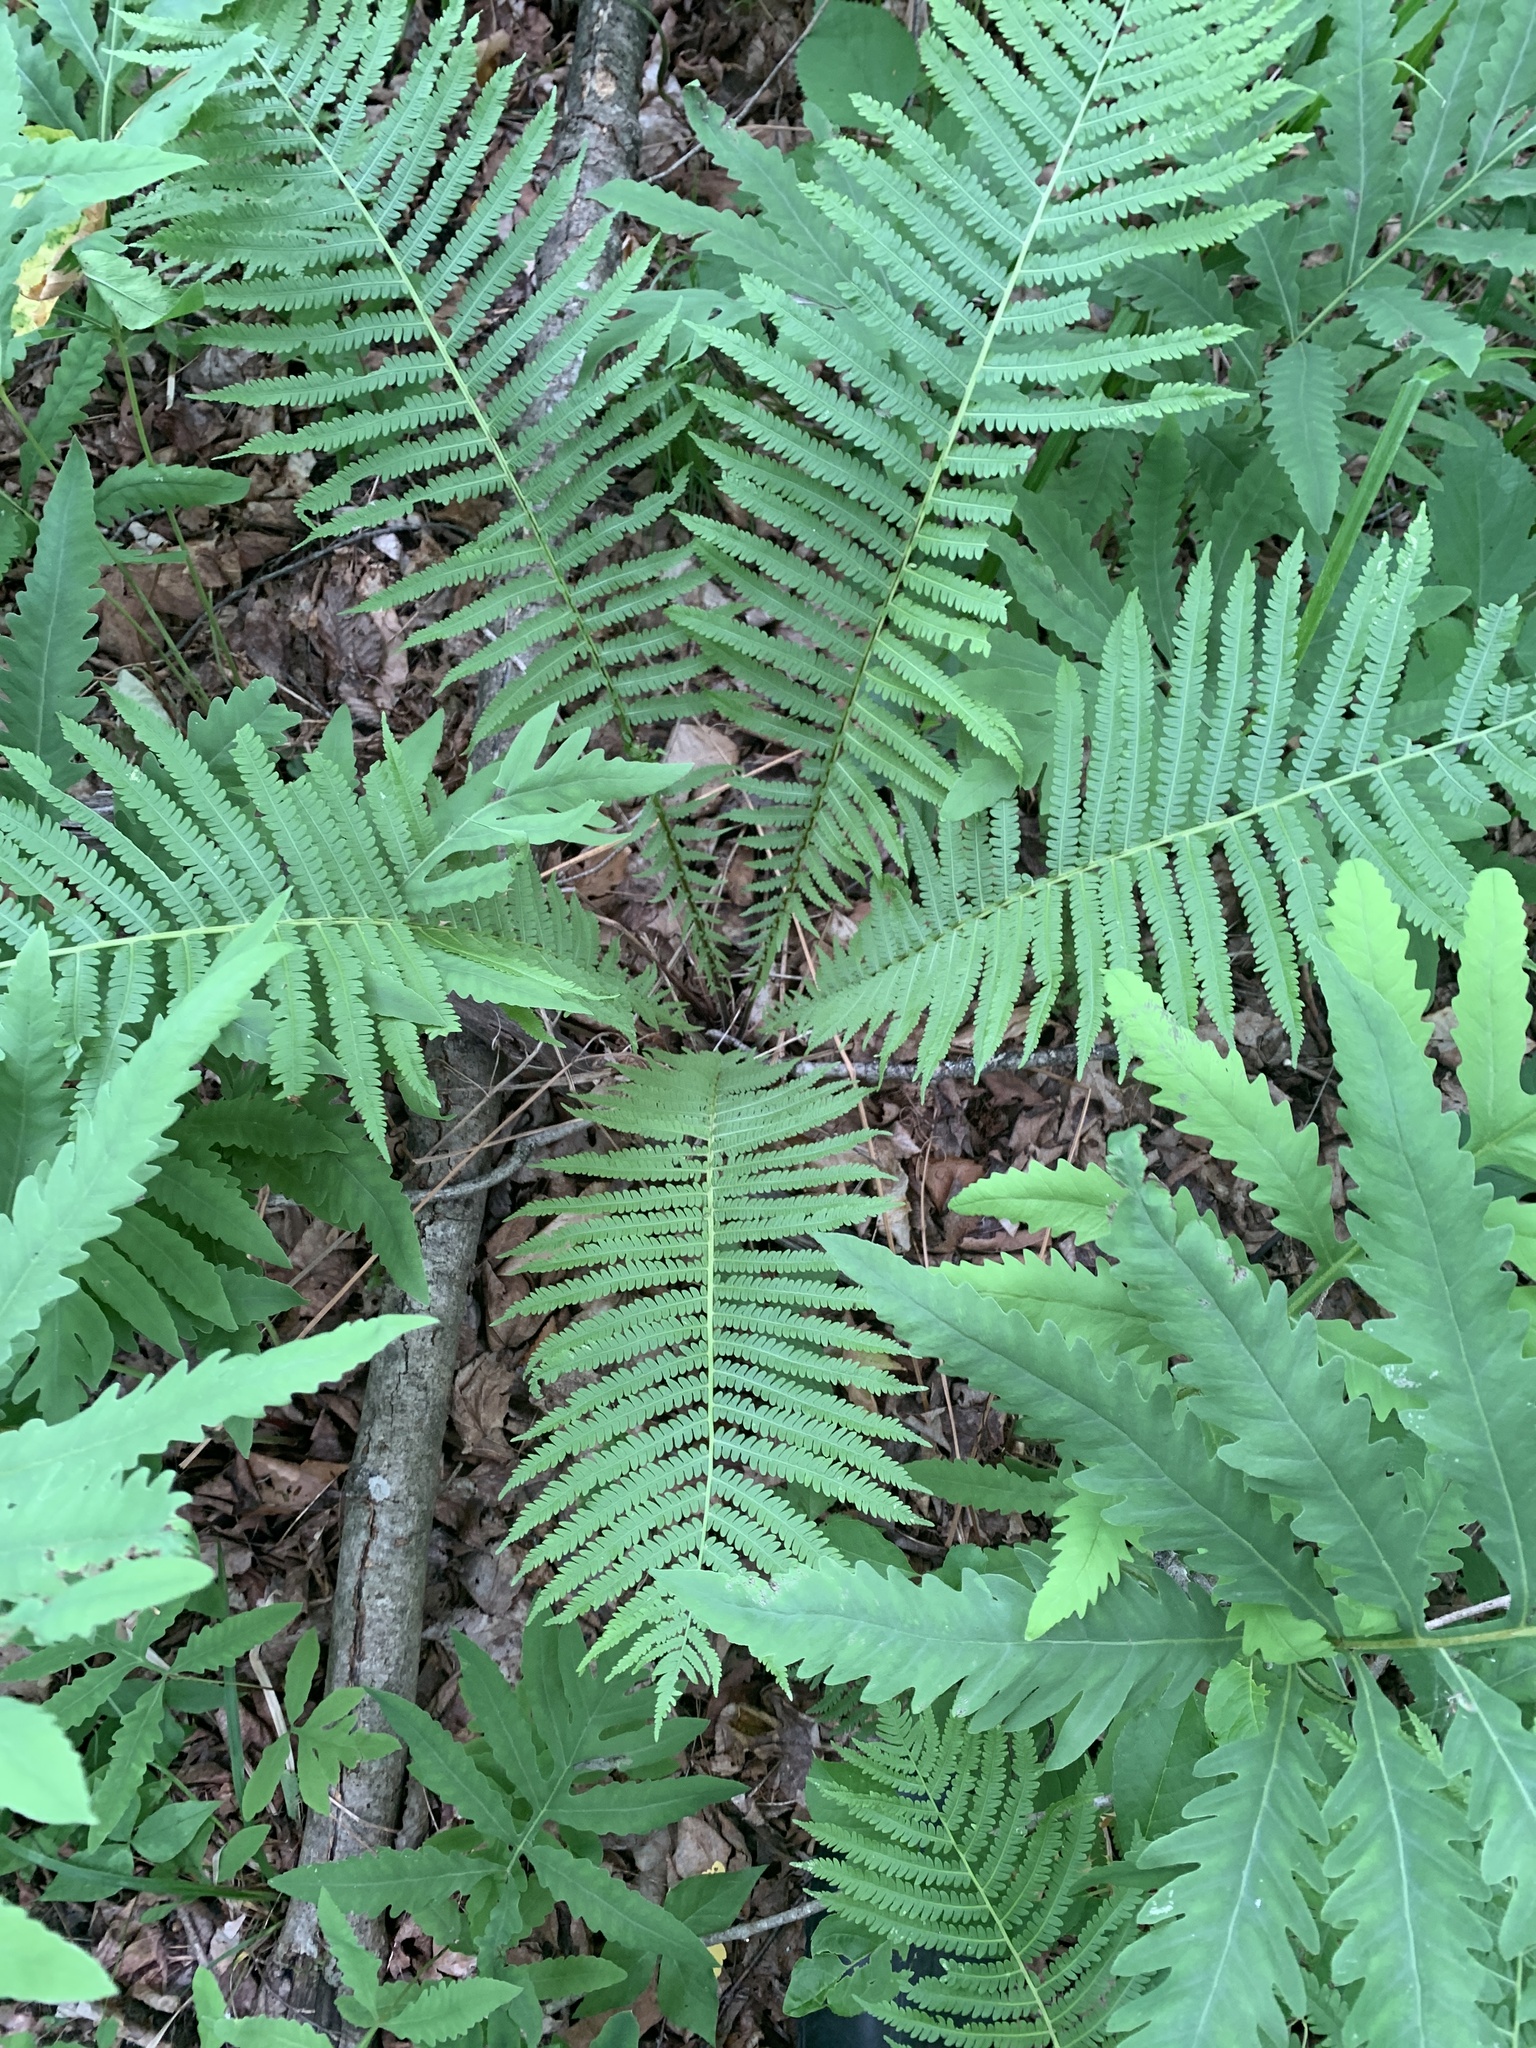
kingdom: Plantae
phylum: Tracheophyta
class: Polypodiopsida
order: Polypodiales
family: Onocleaceae
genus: Matteuccia
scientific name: Matteuccia struthiopteris
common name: Ostrich fern
